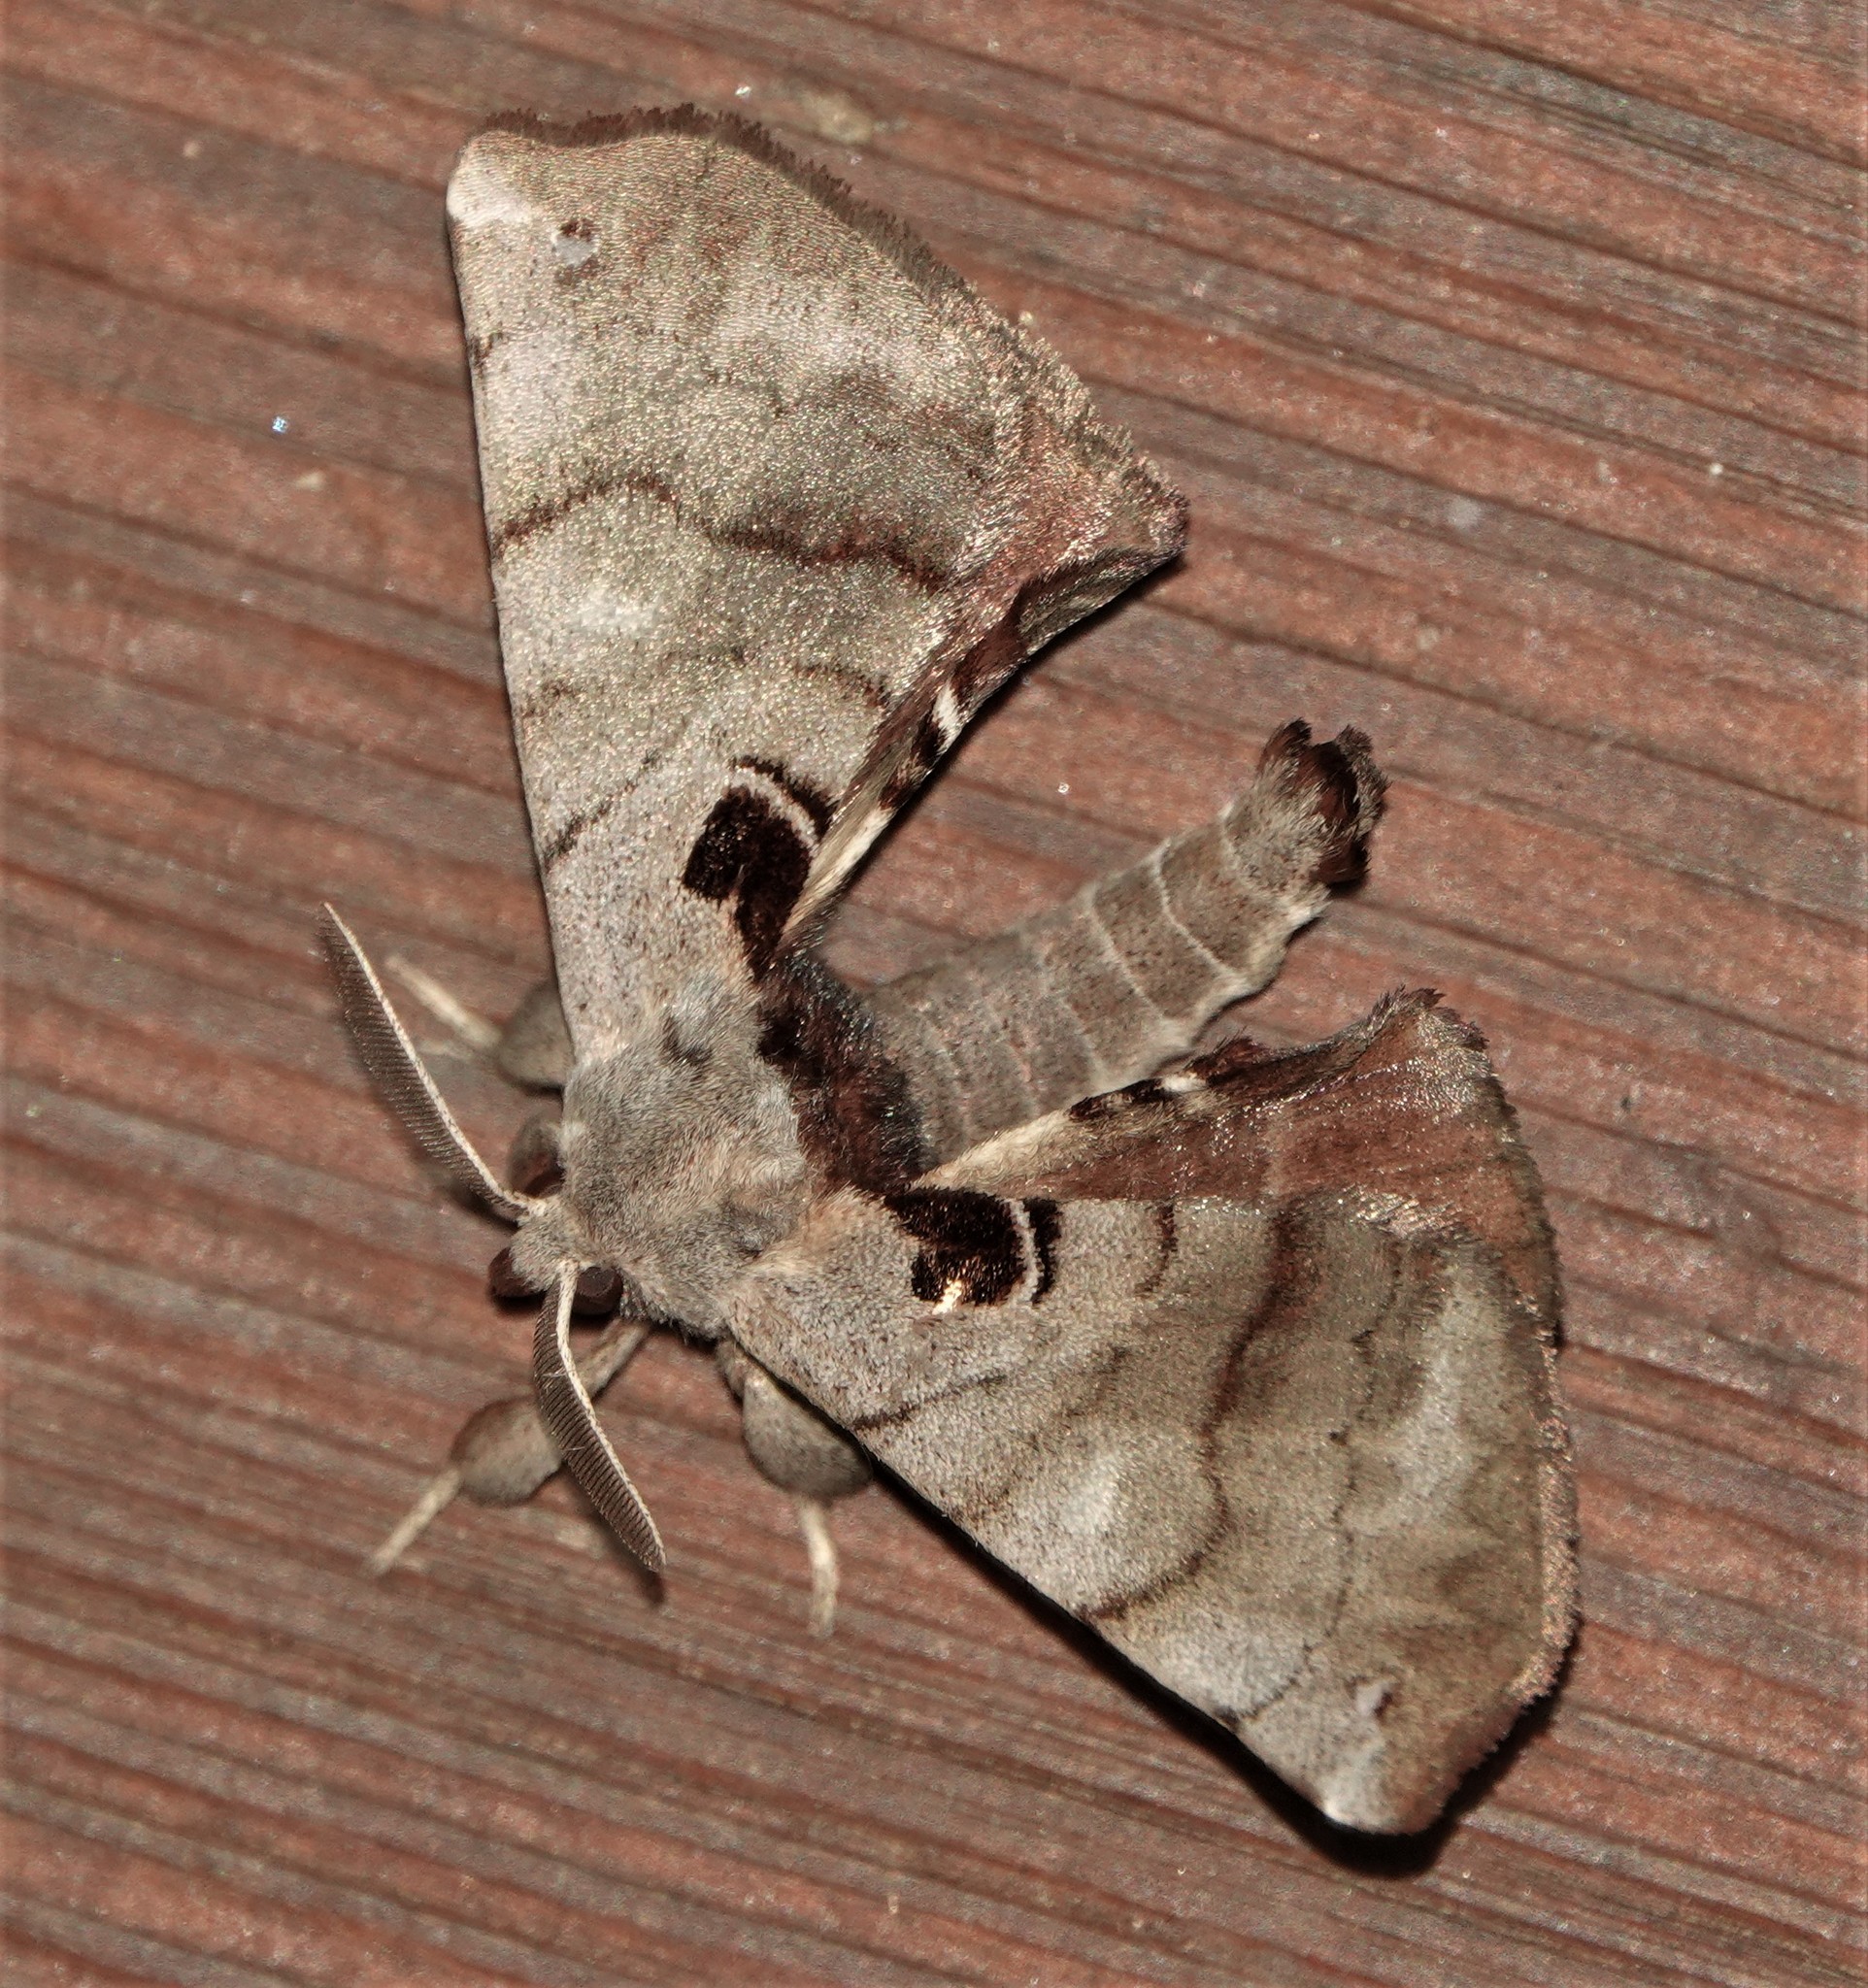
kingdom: Animalia
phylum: Arthropoda
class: Insecta
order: Lepidoptera
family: Apatelodidae
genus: Hygrochroa
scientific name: Hygrochroa Apatelodes torrefacta
